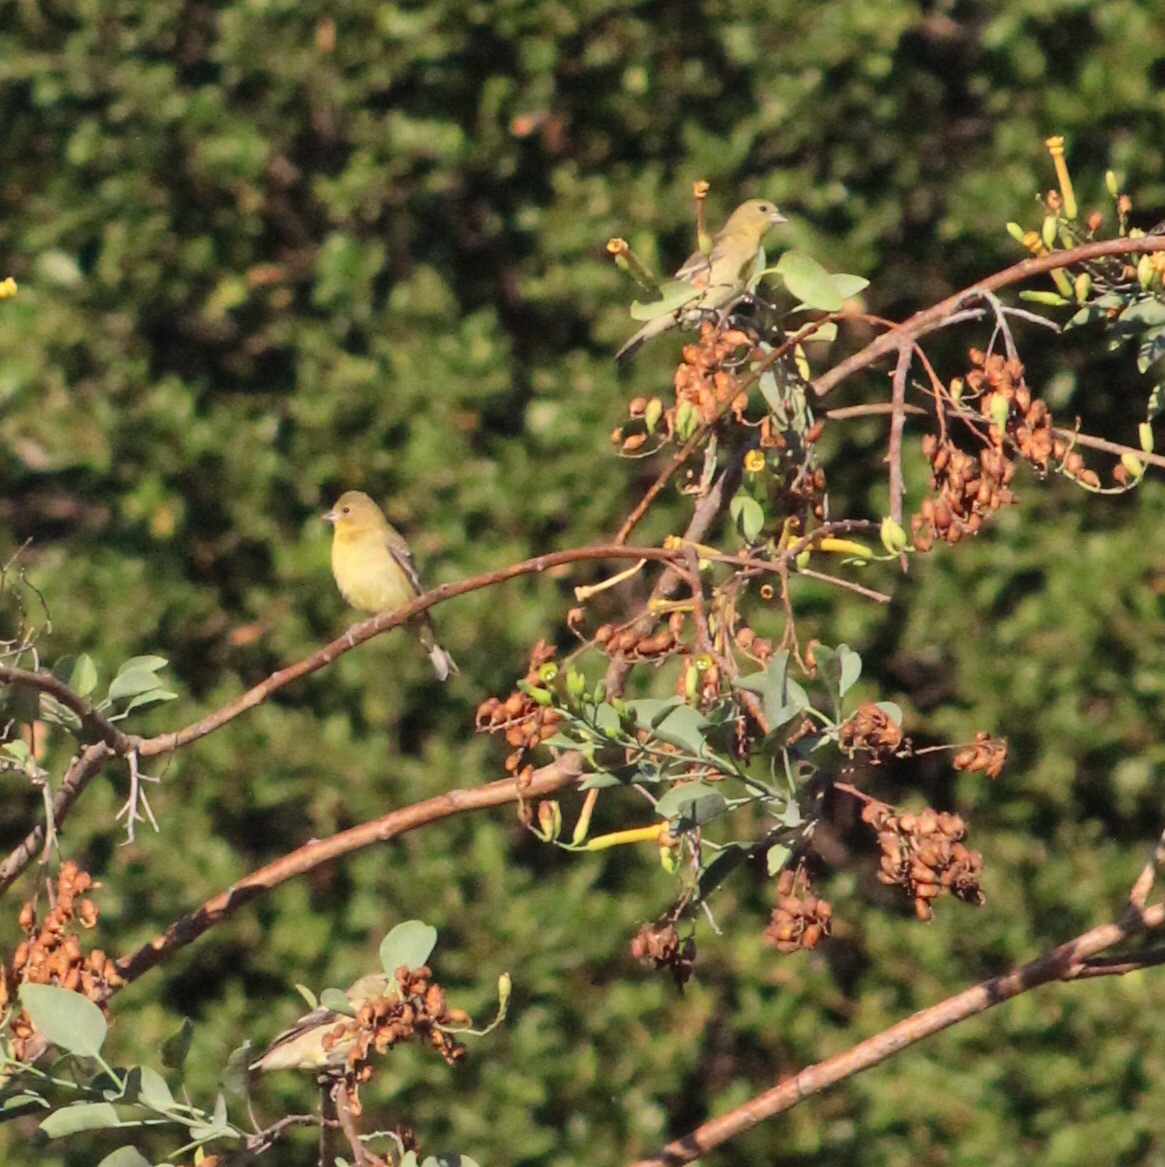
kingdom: Animalia
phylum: Chordata
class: Aves
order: Passeriformes
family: Fringillidae
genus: Spinus
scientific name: Spinus psaltria
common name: Lesser goldfinch
